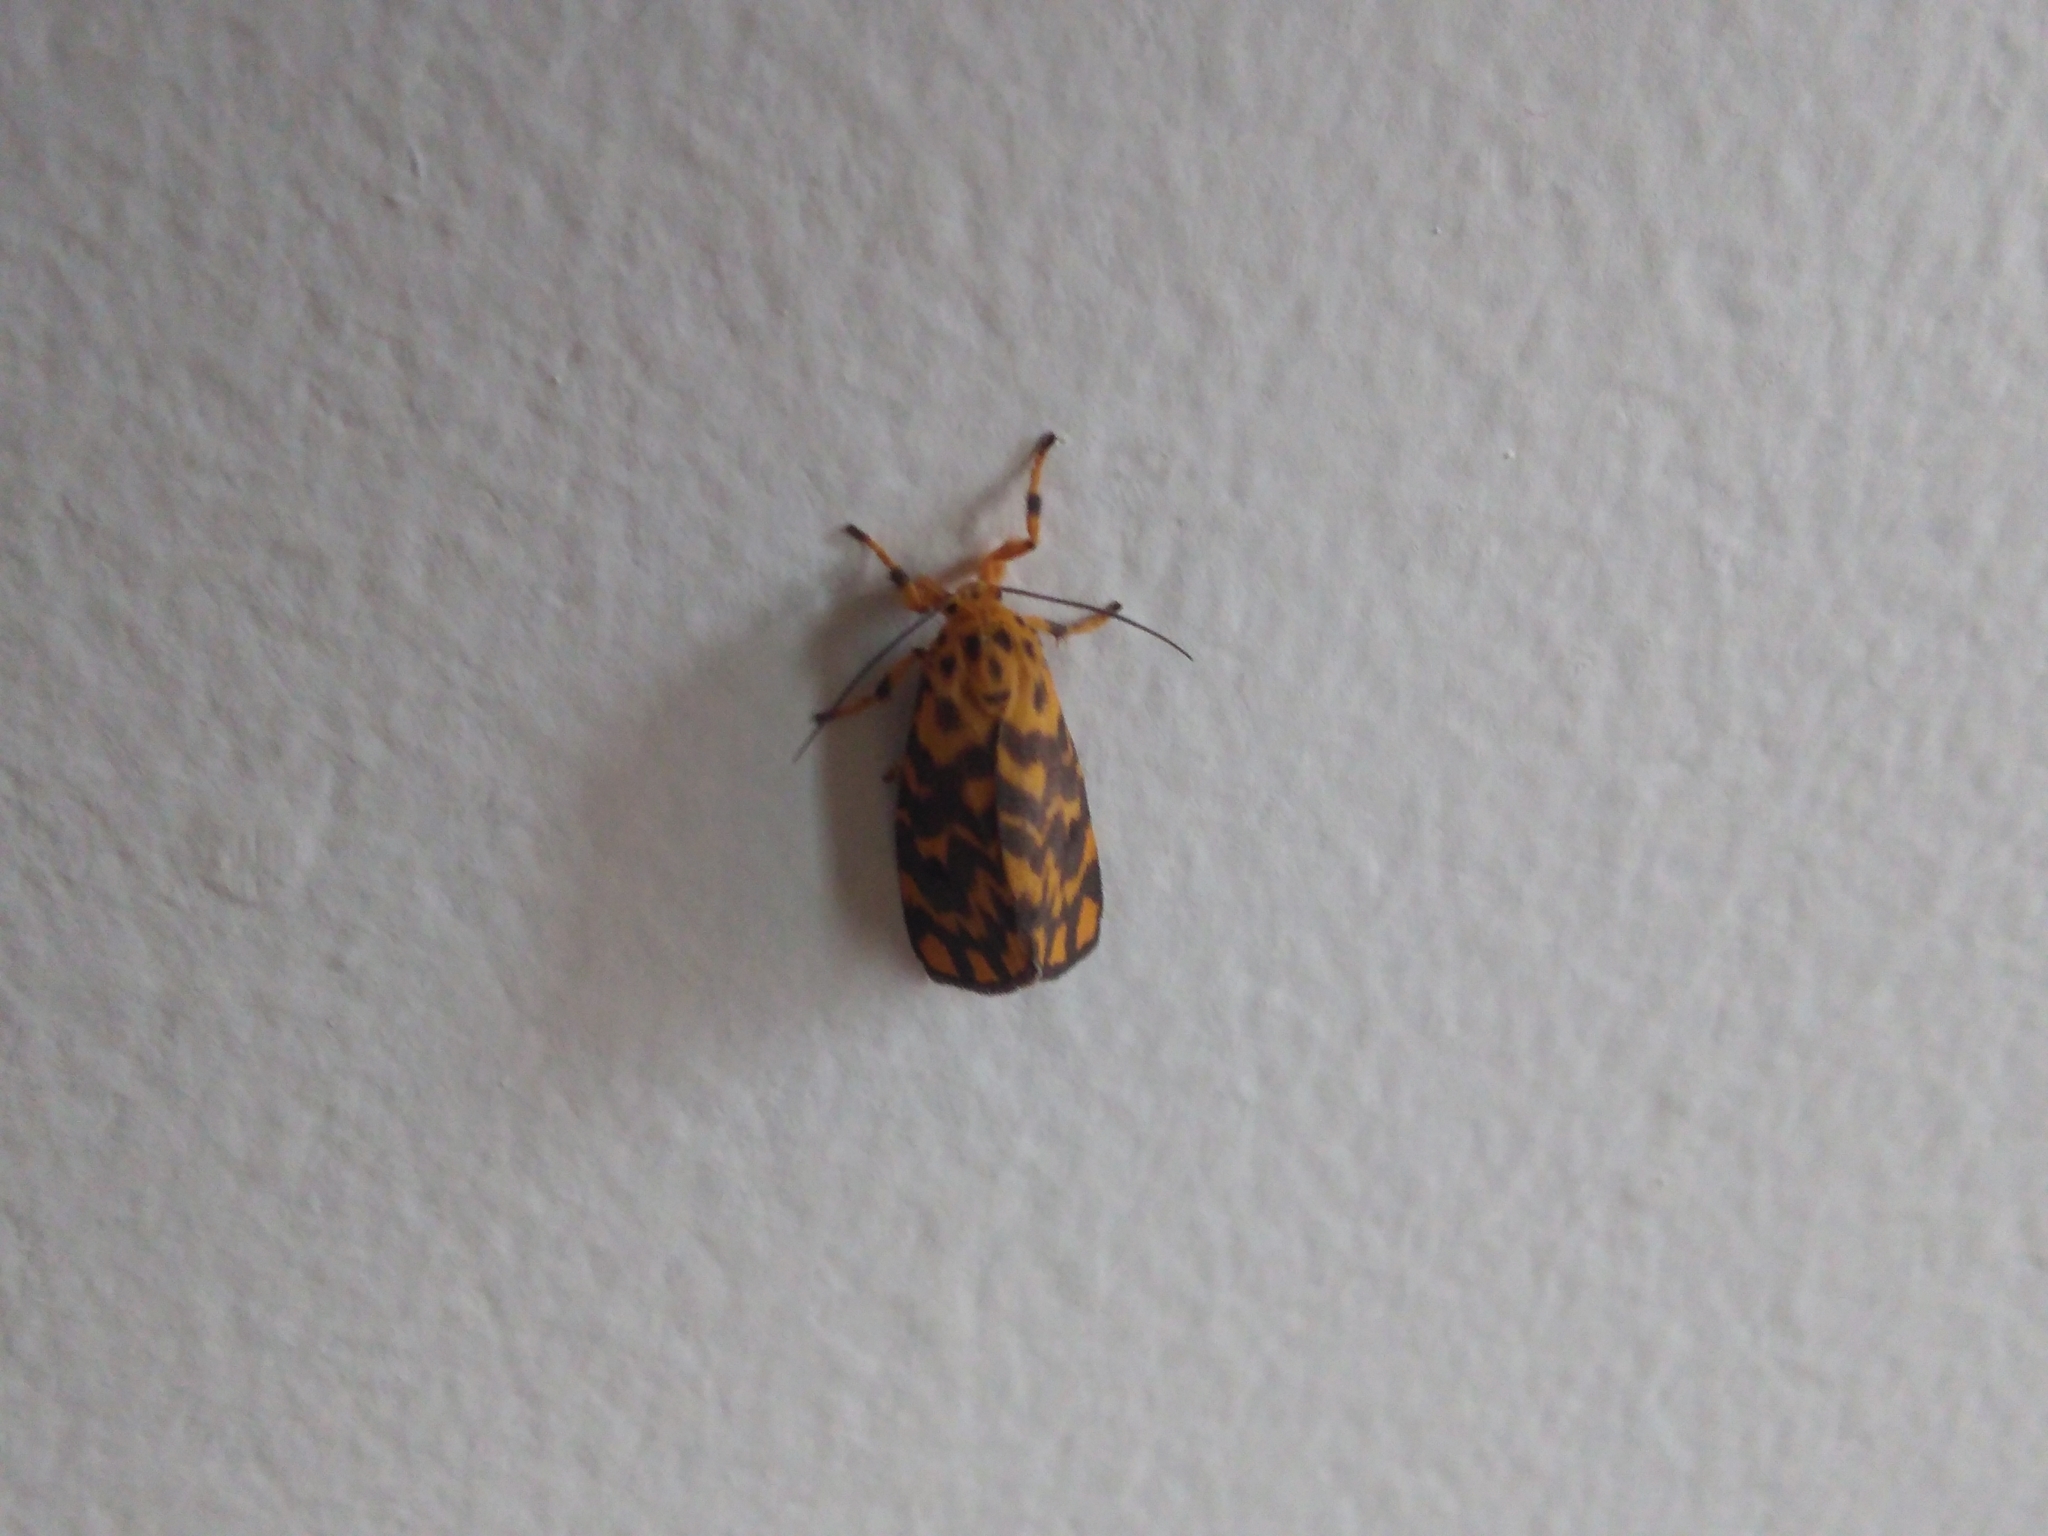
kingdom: Animalia
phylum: Arthropoda
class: Insecta
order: Lepidoptera
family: Erebidae
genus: Nepita
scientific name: Nepita conferta
